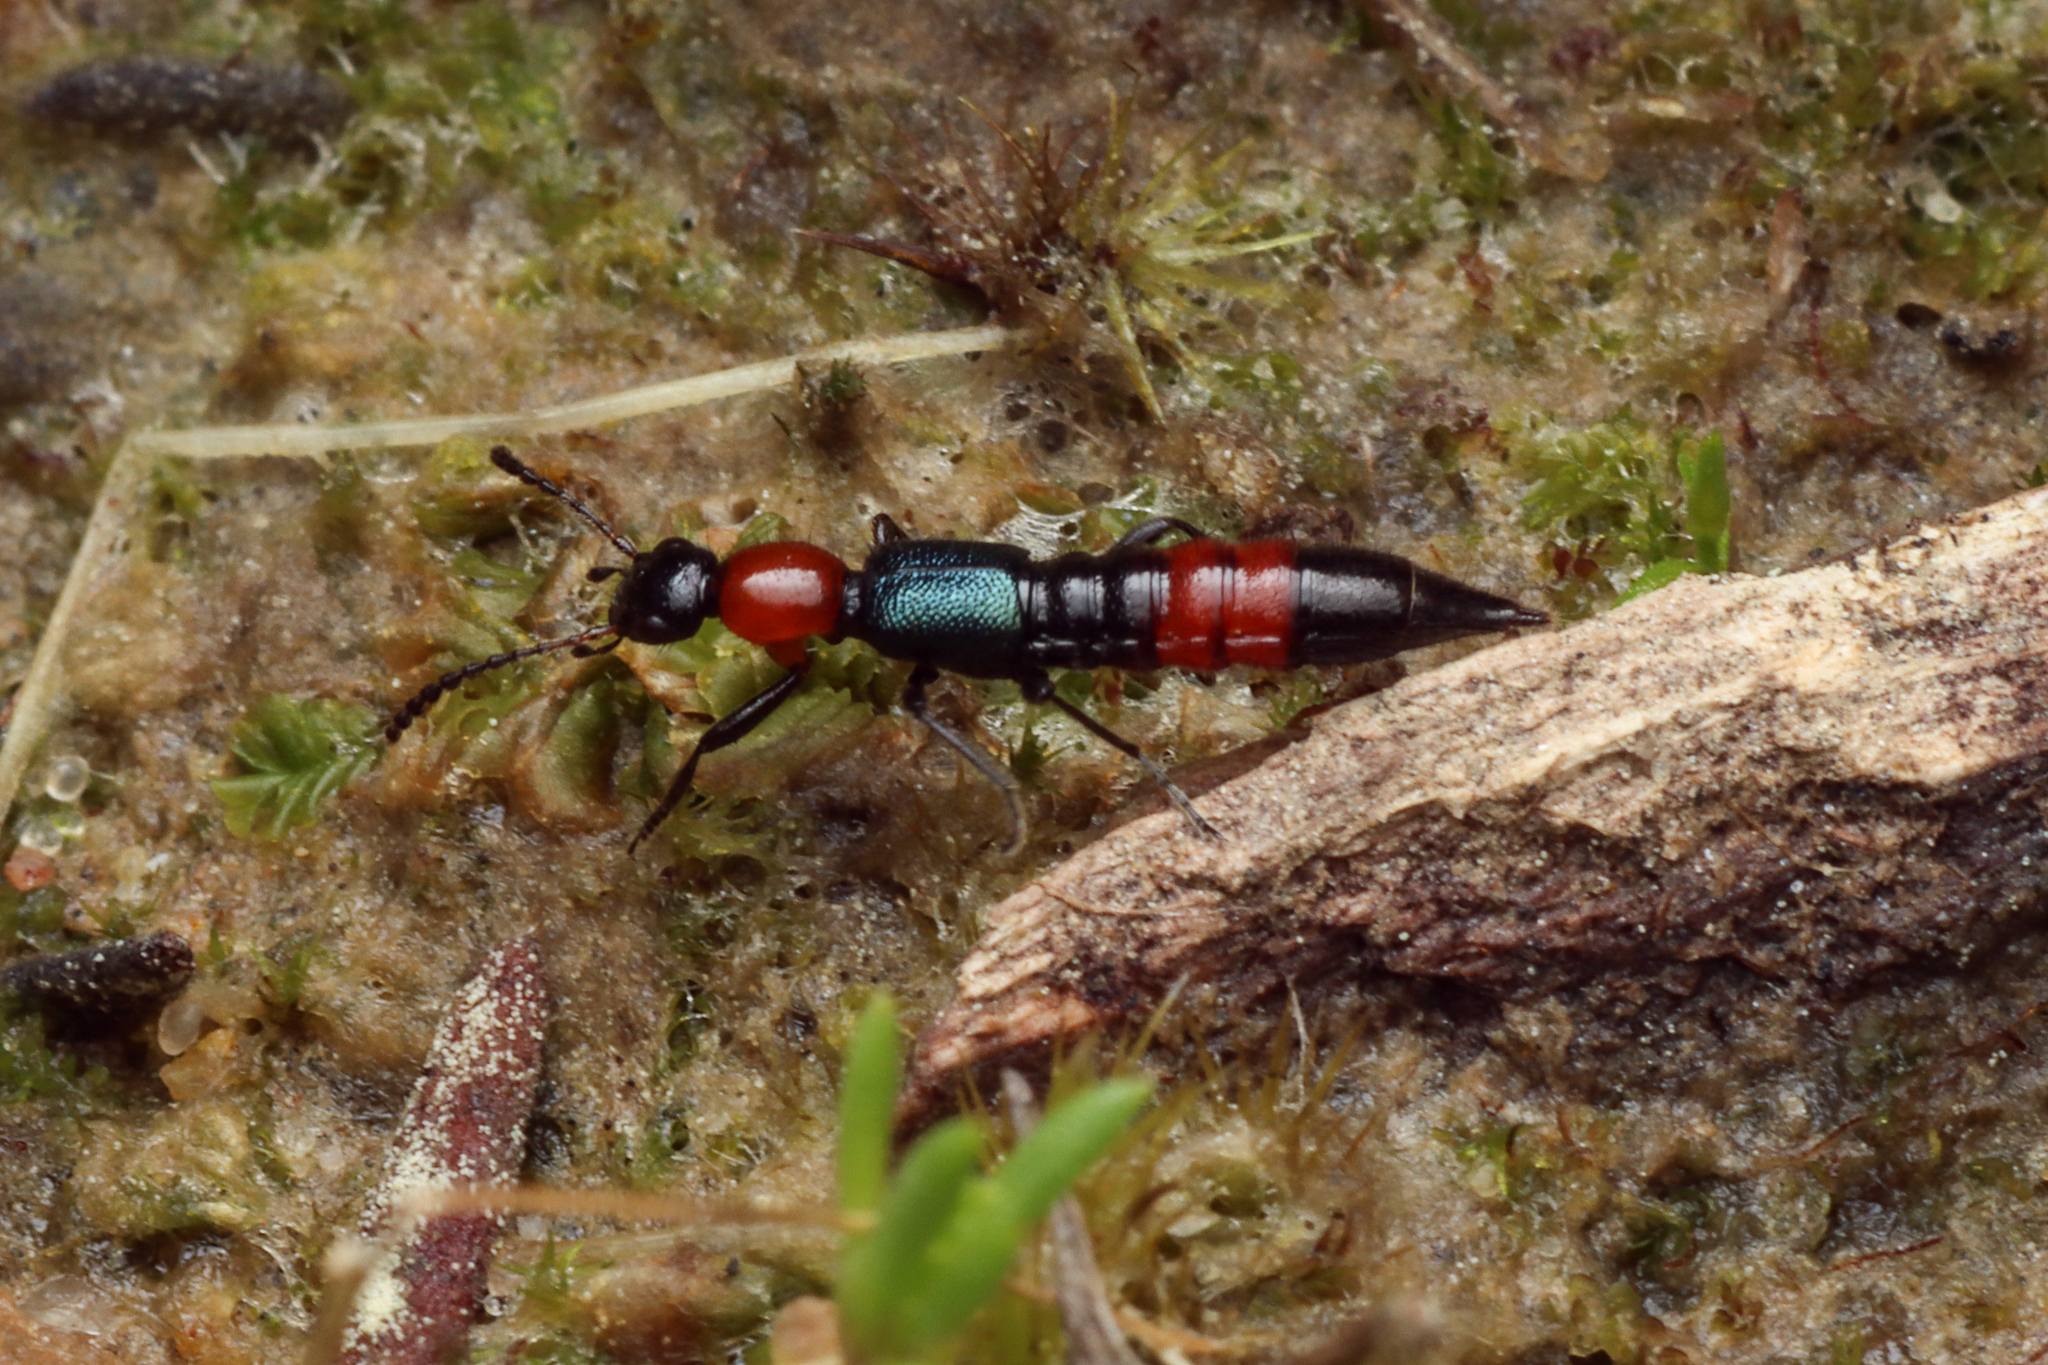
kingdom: Animalia
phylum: Arthropoda
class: Insecta
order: Coleoptera
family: Staphylinidae
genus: Paederus
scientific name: Paederus cruenticollis
